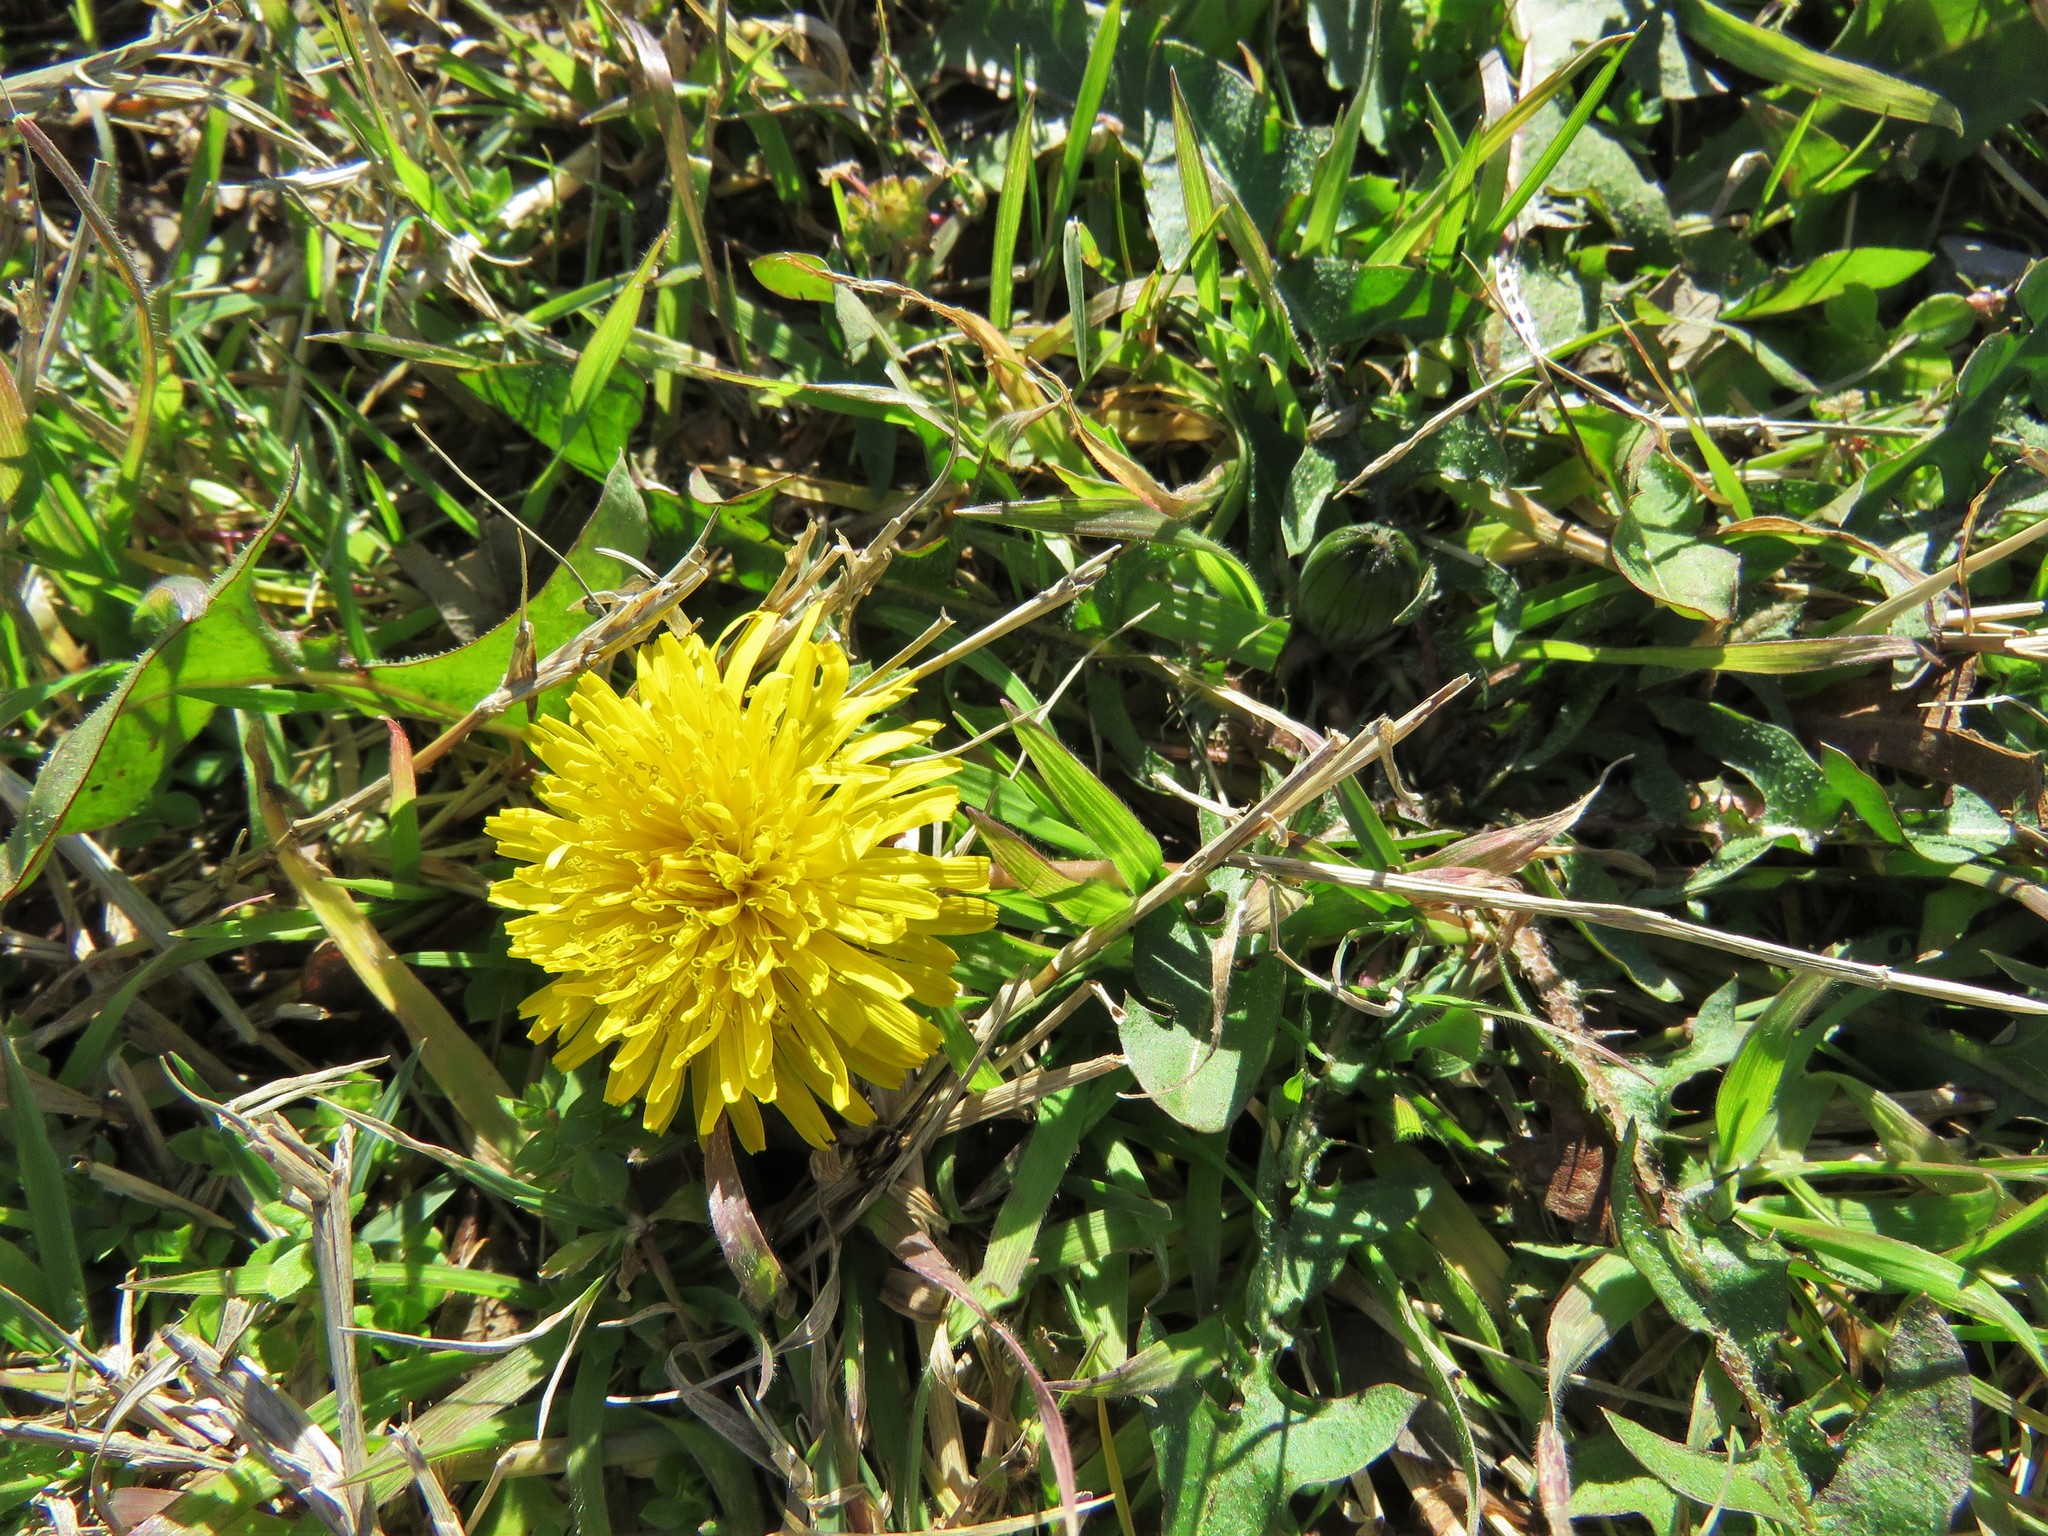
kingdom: Plantae
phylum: Tracheophyta
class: Magnoliopsida
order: Asterales
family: Asteraceae
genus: Taraxacum
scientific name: Taraxacum officinale
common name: Common dandelion
